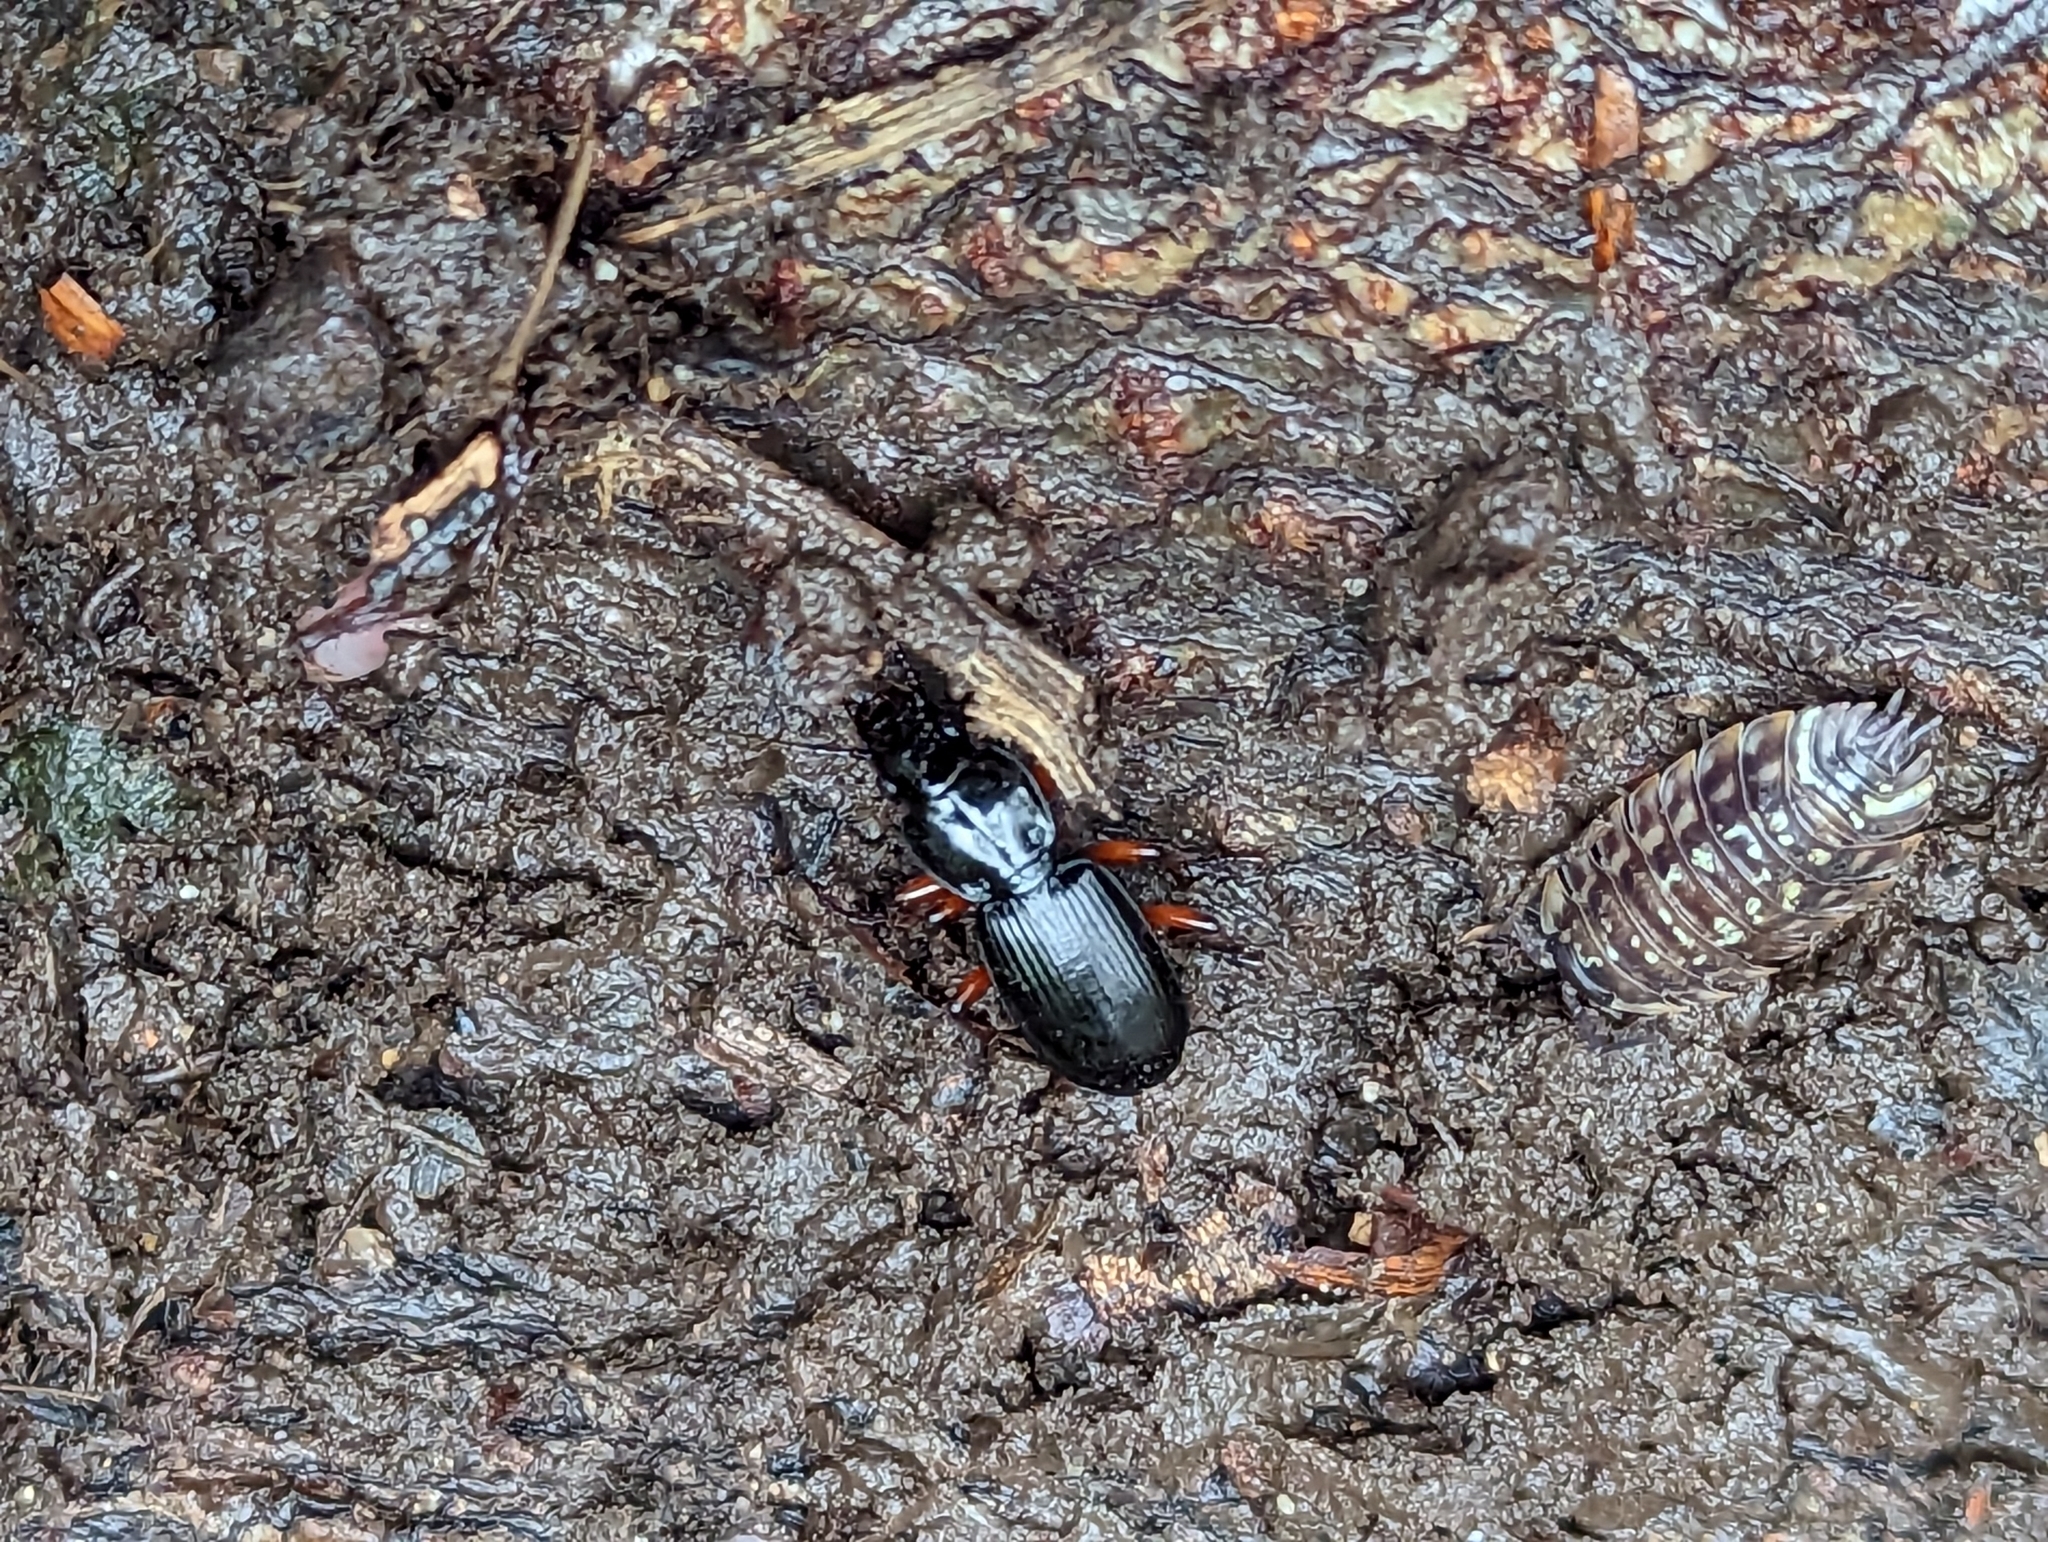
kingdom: Animalia
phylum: Arthropoda
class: Insecta
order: Coleoptera
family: Carabidae
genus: Pterostichus
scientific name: Pterostichus madidus
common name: Black clock
